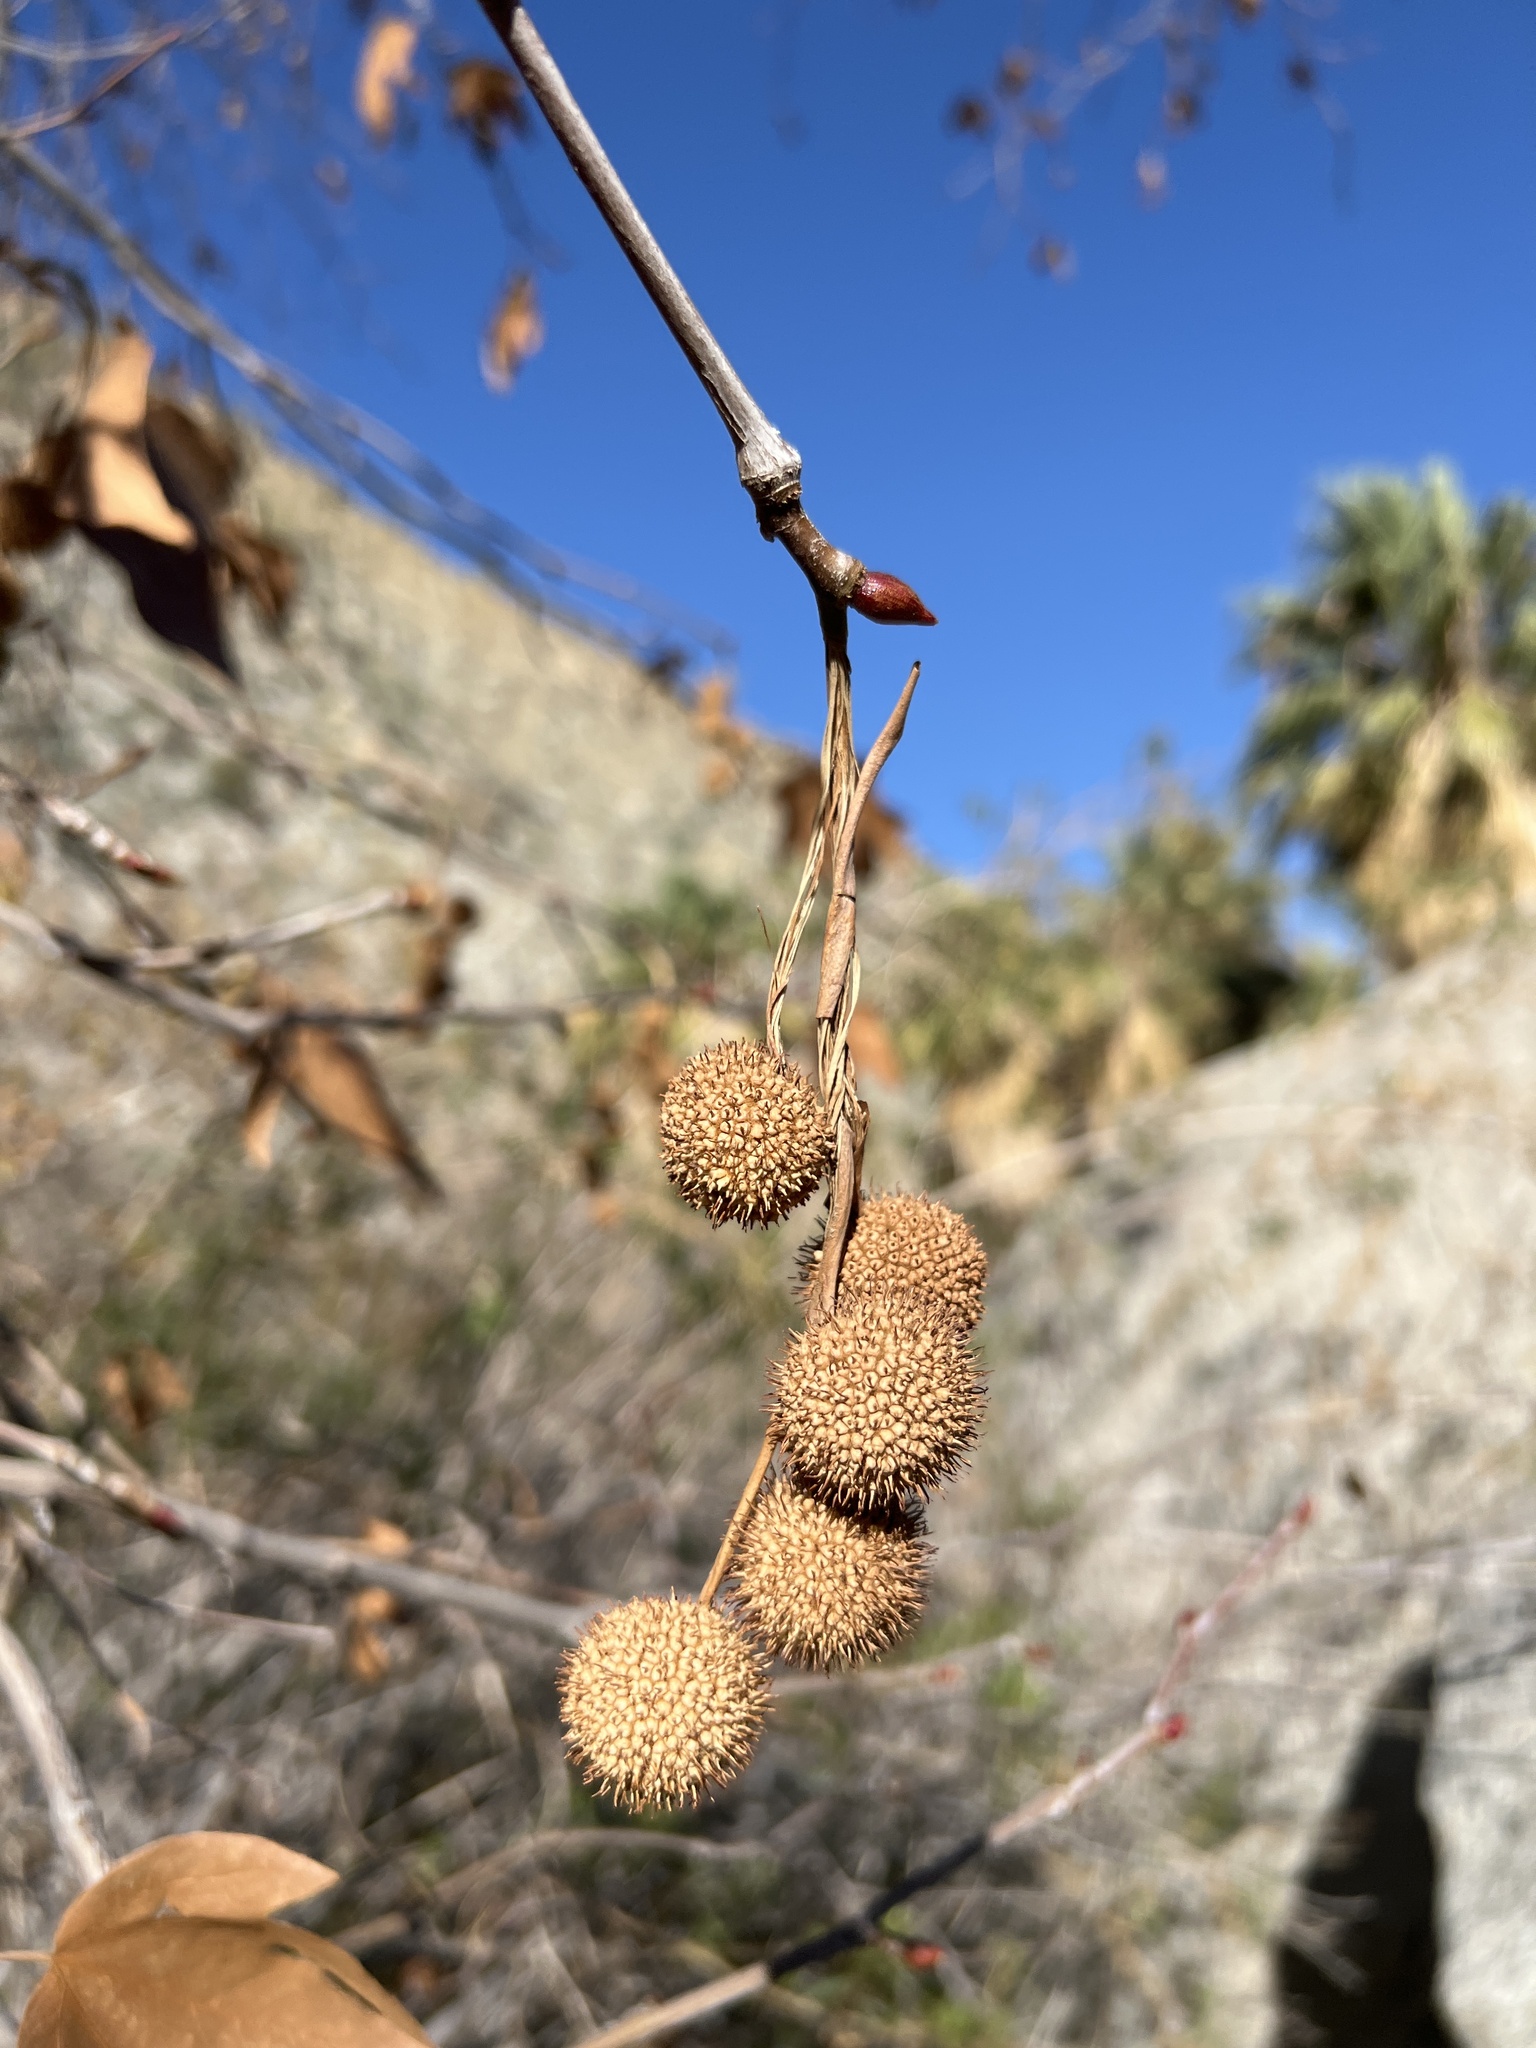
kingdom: Plantae
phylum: Tracheophyta
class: Magnoliopsida
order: Proteales
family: Platanaceae
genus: Platanus
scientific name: Platanus racemosa
